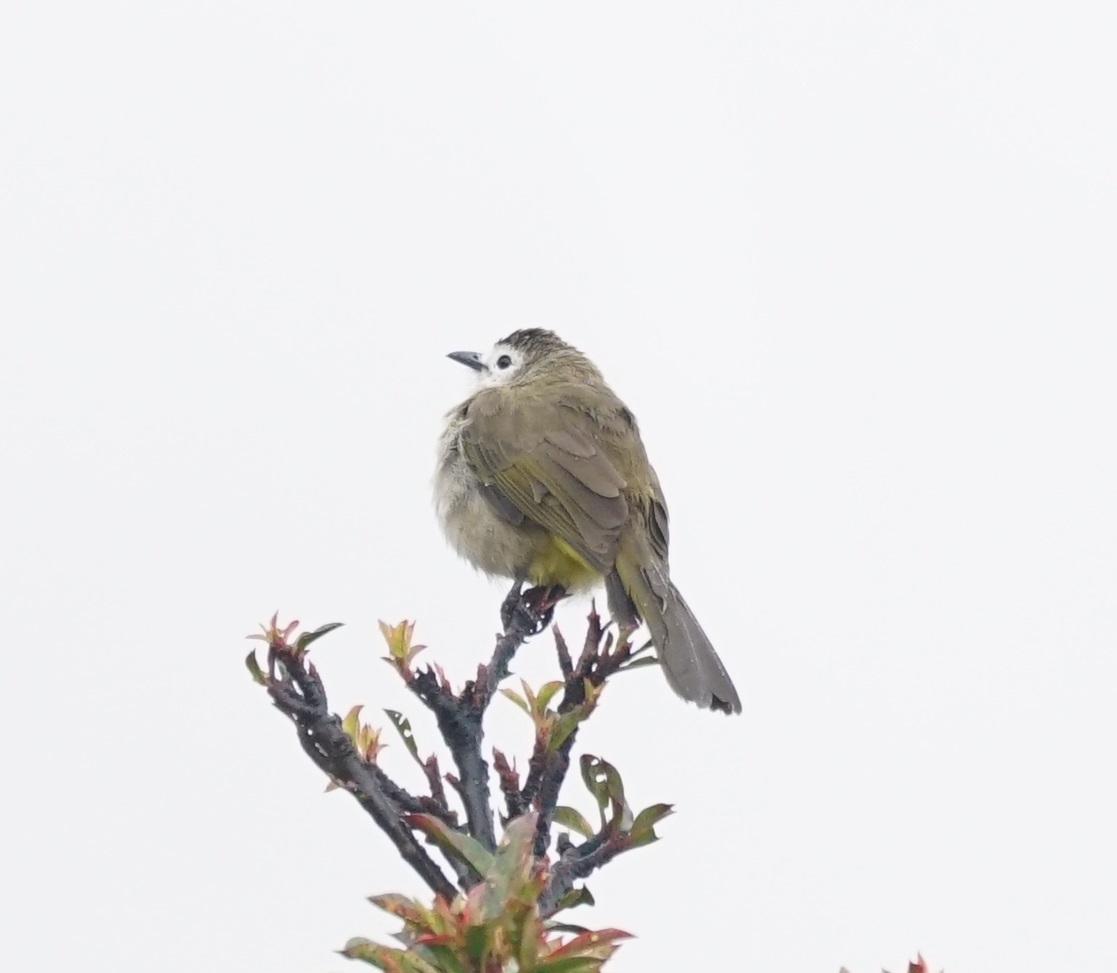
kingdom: Animalia
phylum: Chordata
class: Aves
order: Passeriformes
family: Pycnonotidae
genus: Pycnonotus
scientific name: Pycnonotus flavescens
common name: Flavescent bulbul
